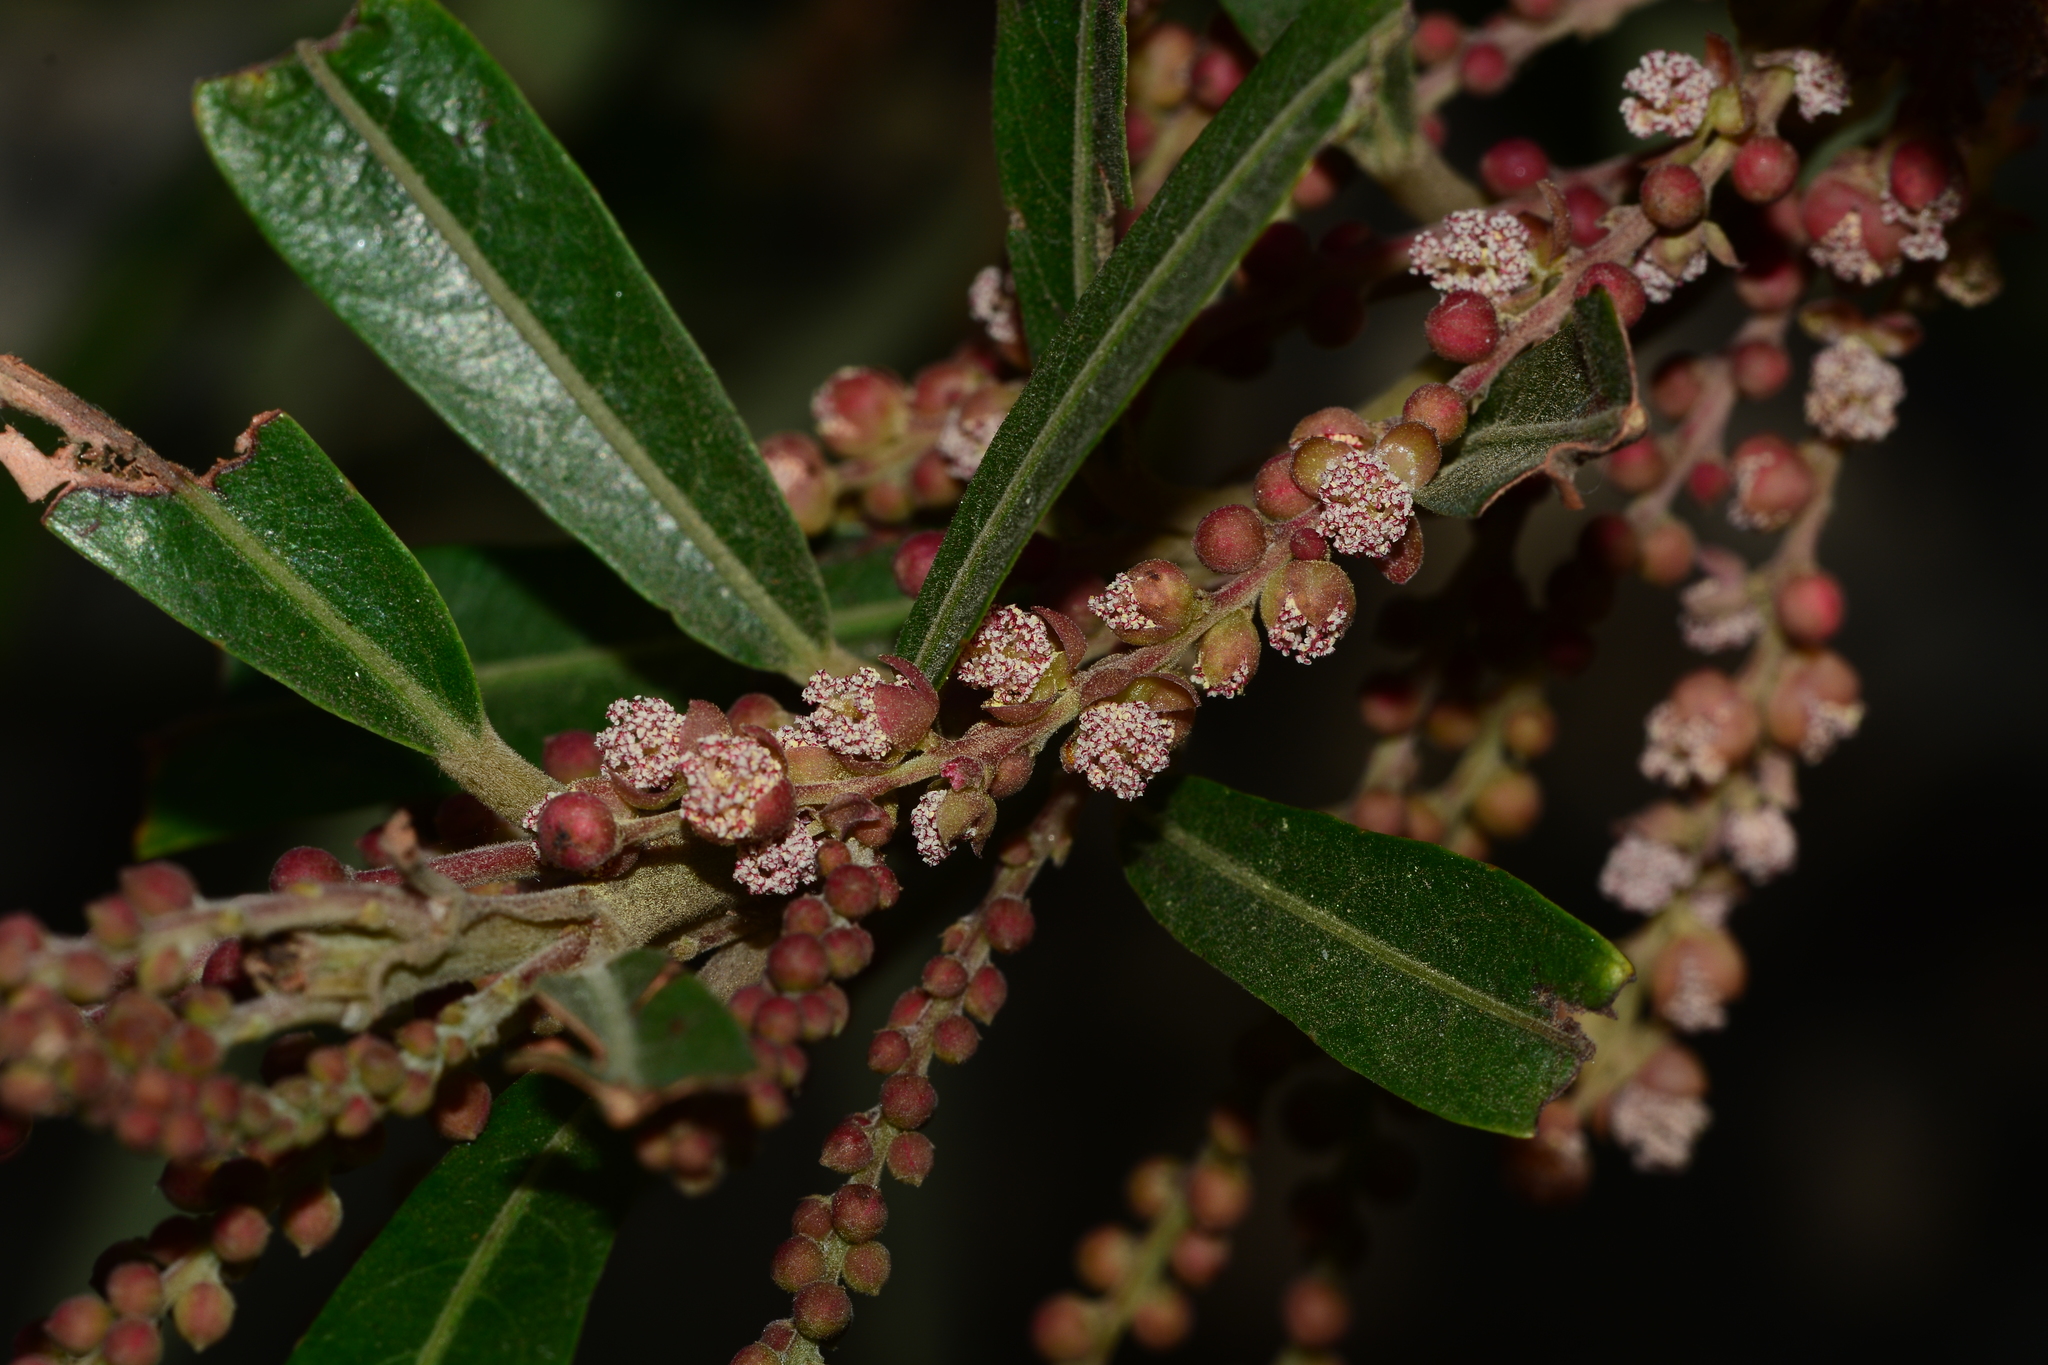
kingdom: Plantae
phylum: Tracheophyta
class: Magnoliopsida
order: Malpighiales
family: Euphorbiaceae
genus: Homonoia
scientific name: Homonoia riparia
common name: Willow-leaved water croton
